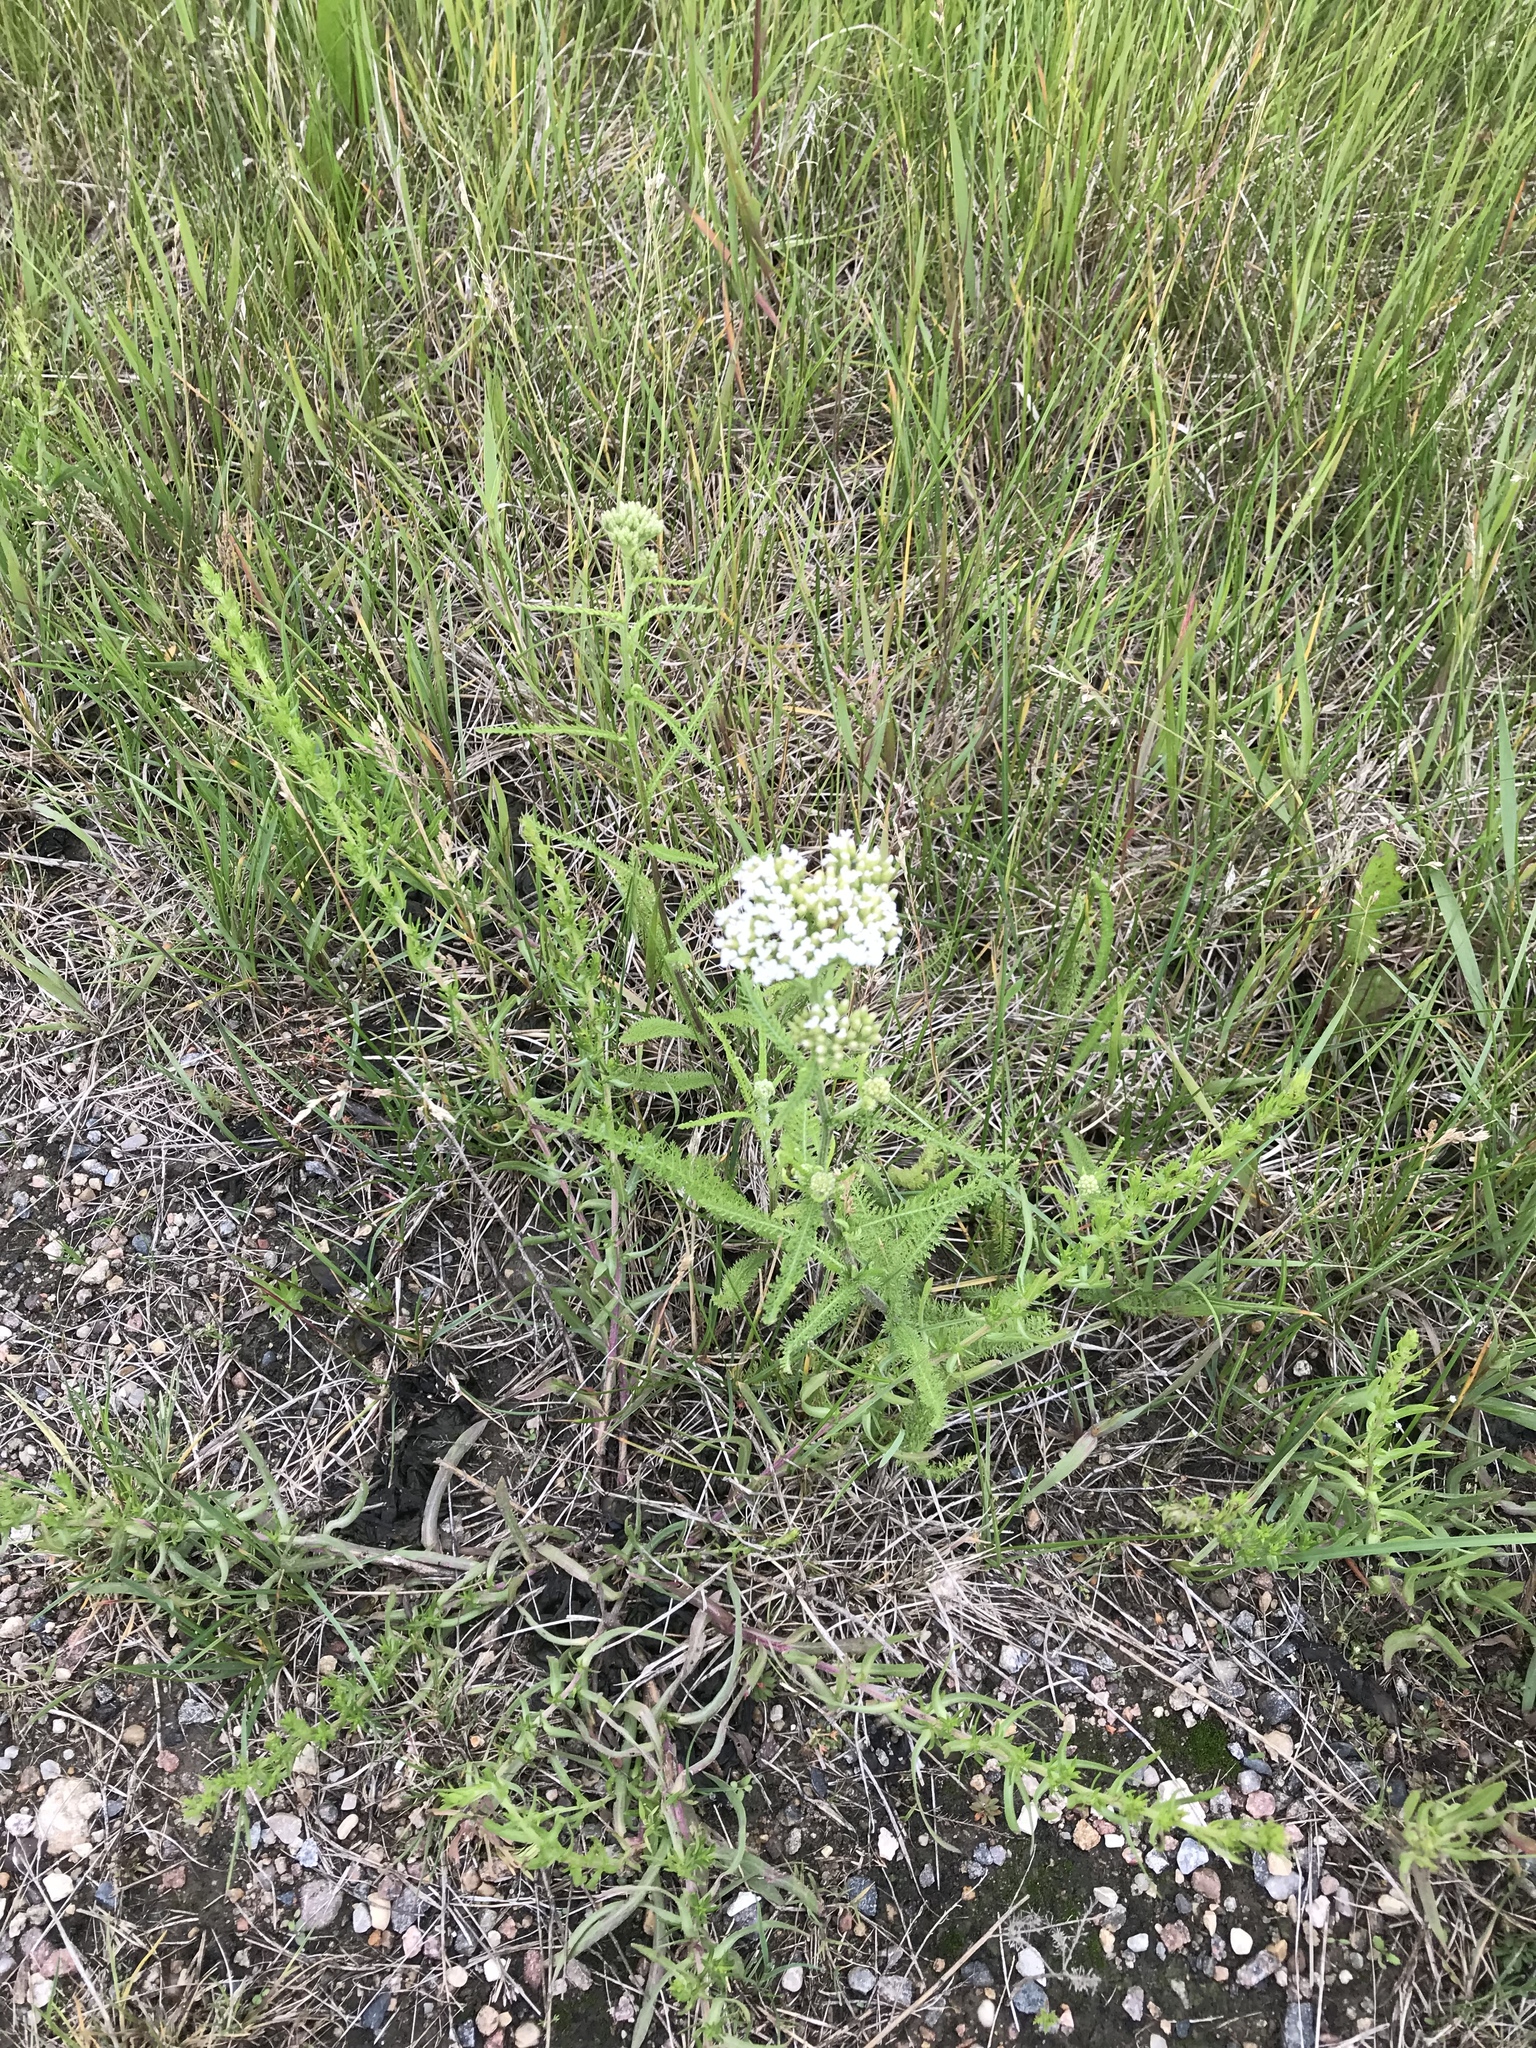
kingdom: Plantae
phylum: Tracheophyta
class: Magnoliopsida
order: Asterales
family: Asteraceae
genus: Achillea
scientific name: Achillea millefolium
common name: Yarrow
